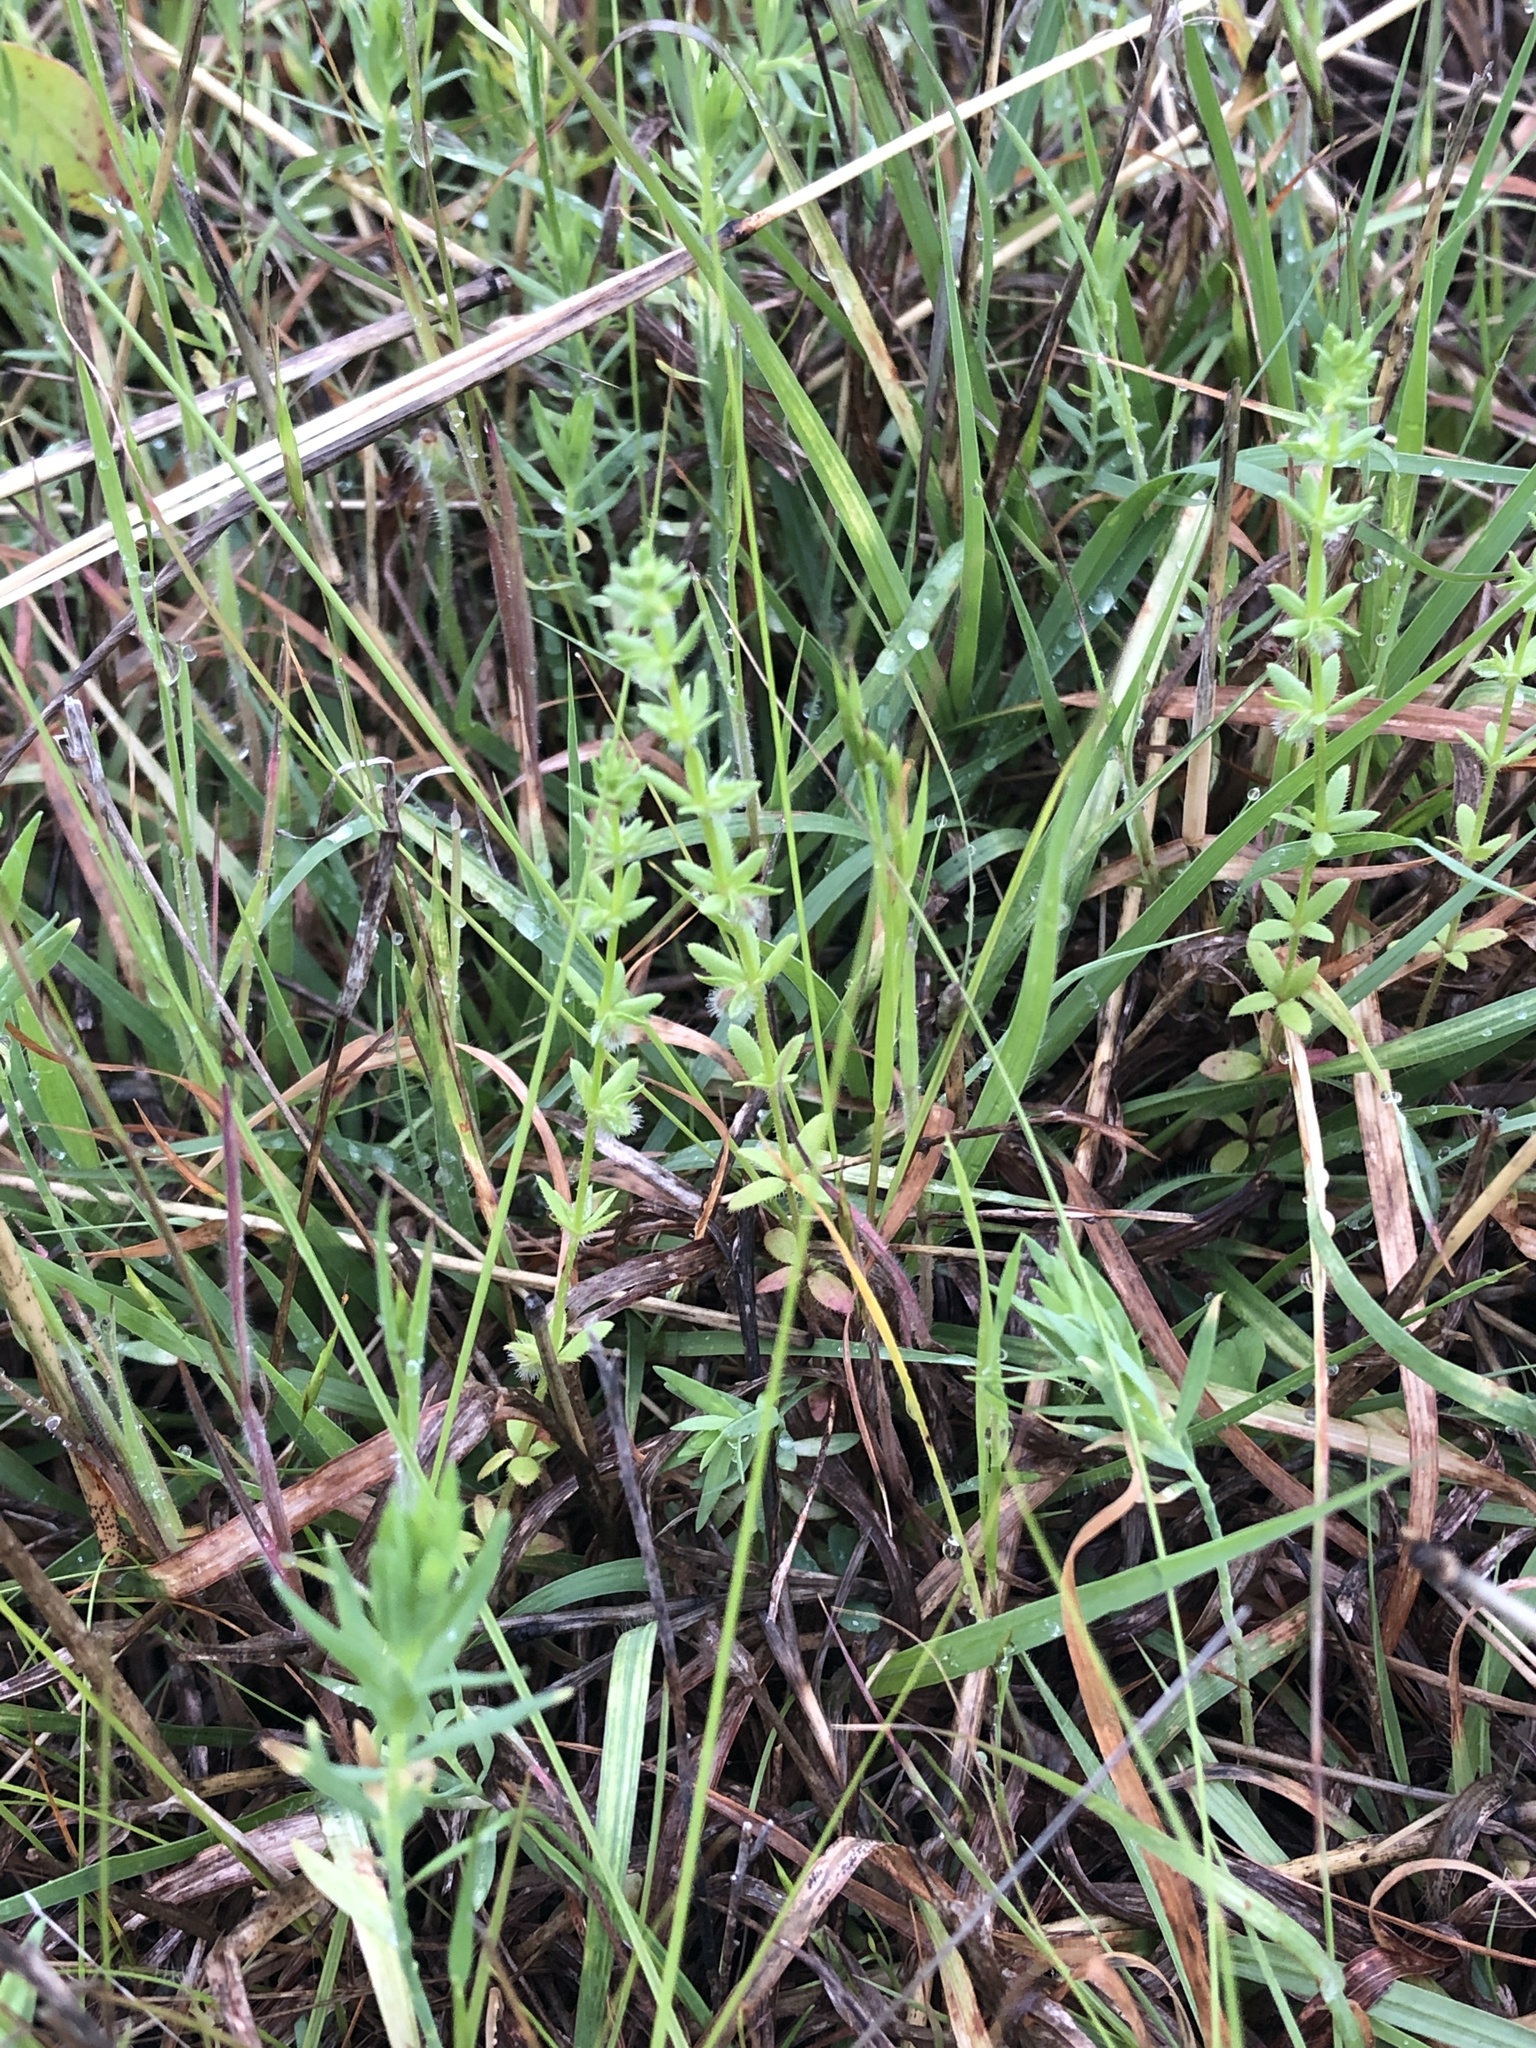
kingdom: Plantae
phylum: Tracheophyta
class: Magnoliopsida
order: Gentianales
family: Rubiaceae
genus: Galium
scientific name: Galium virgatum
